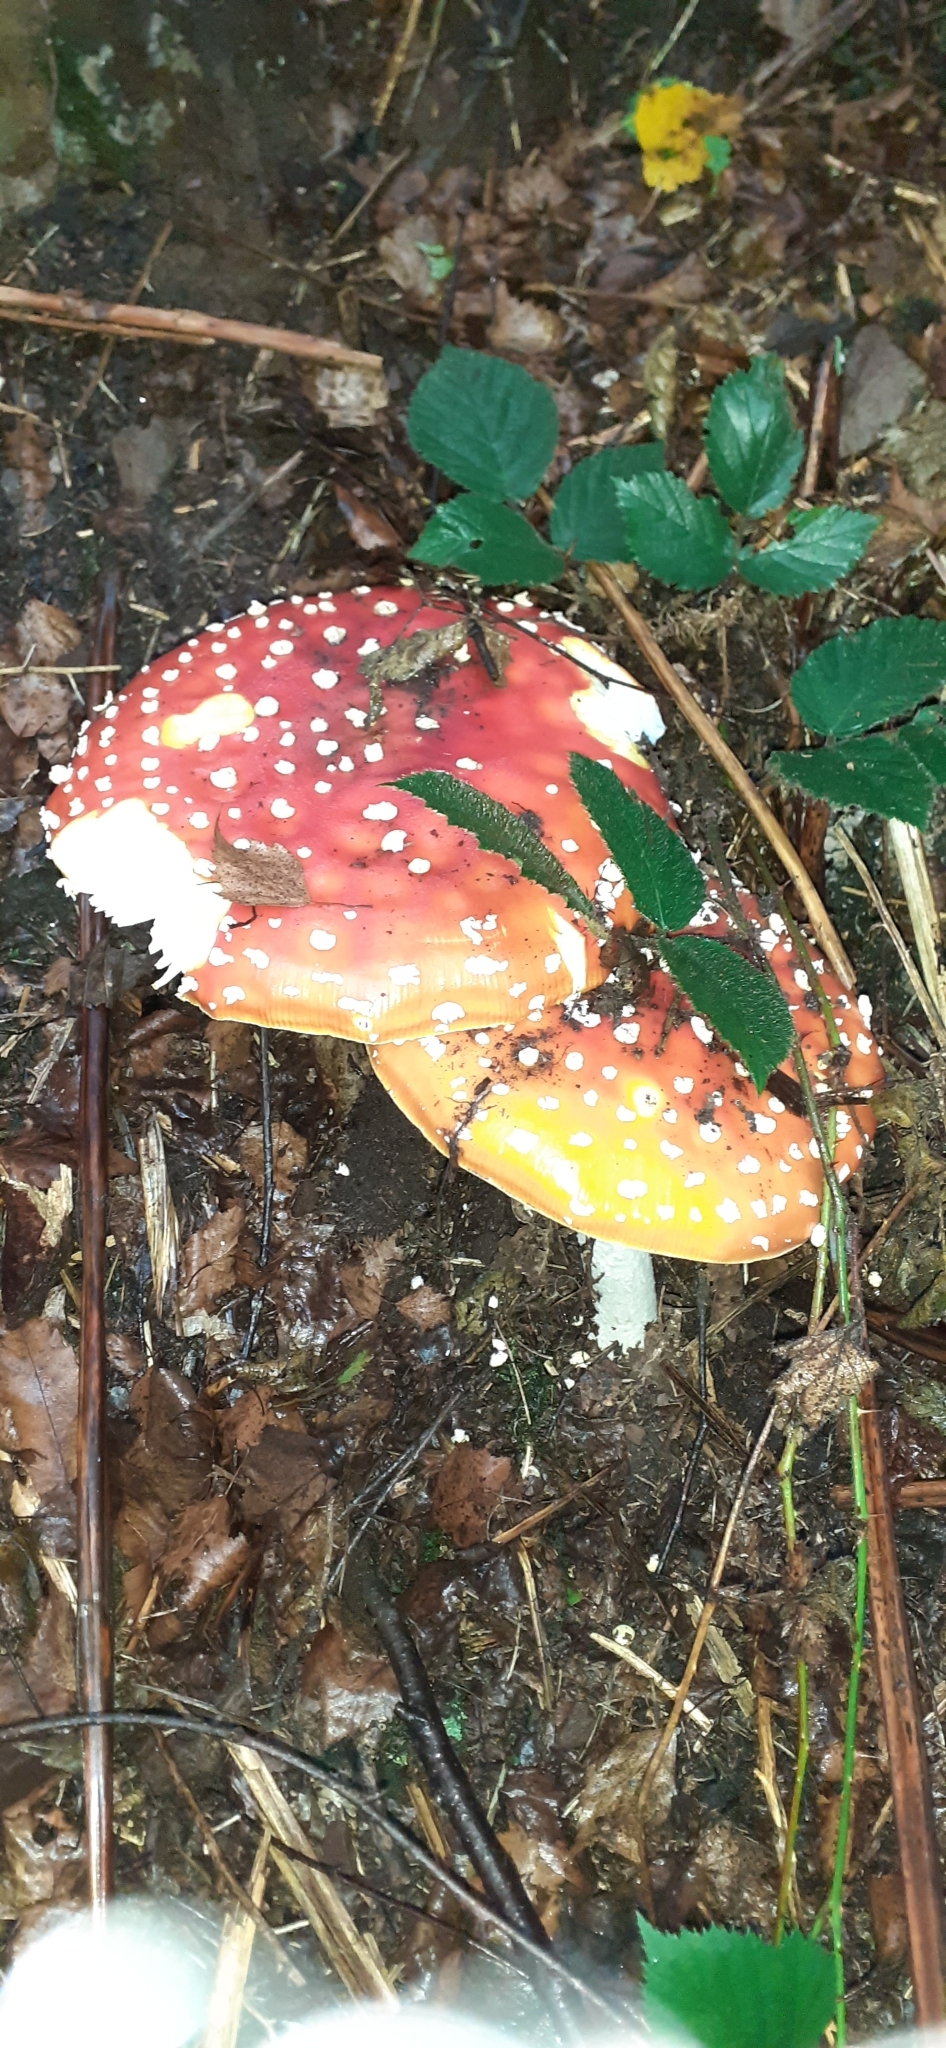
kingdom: Fungi
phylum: Basidiomycota
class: Agaricomycetes
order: Agaricales
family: Amanitaceae
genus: Amanita
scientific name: Amanita muscaria
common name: Fly agaric
